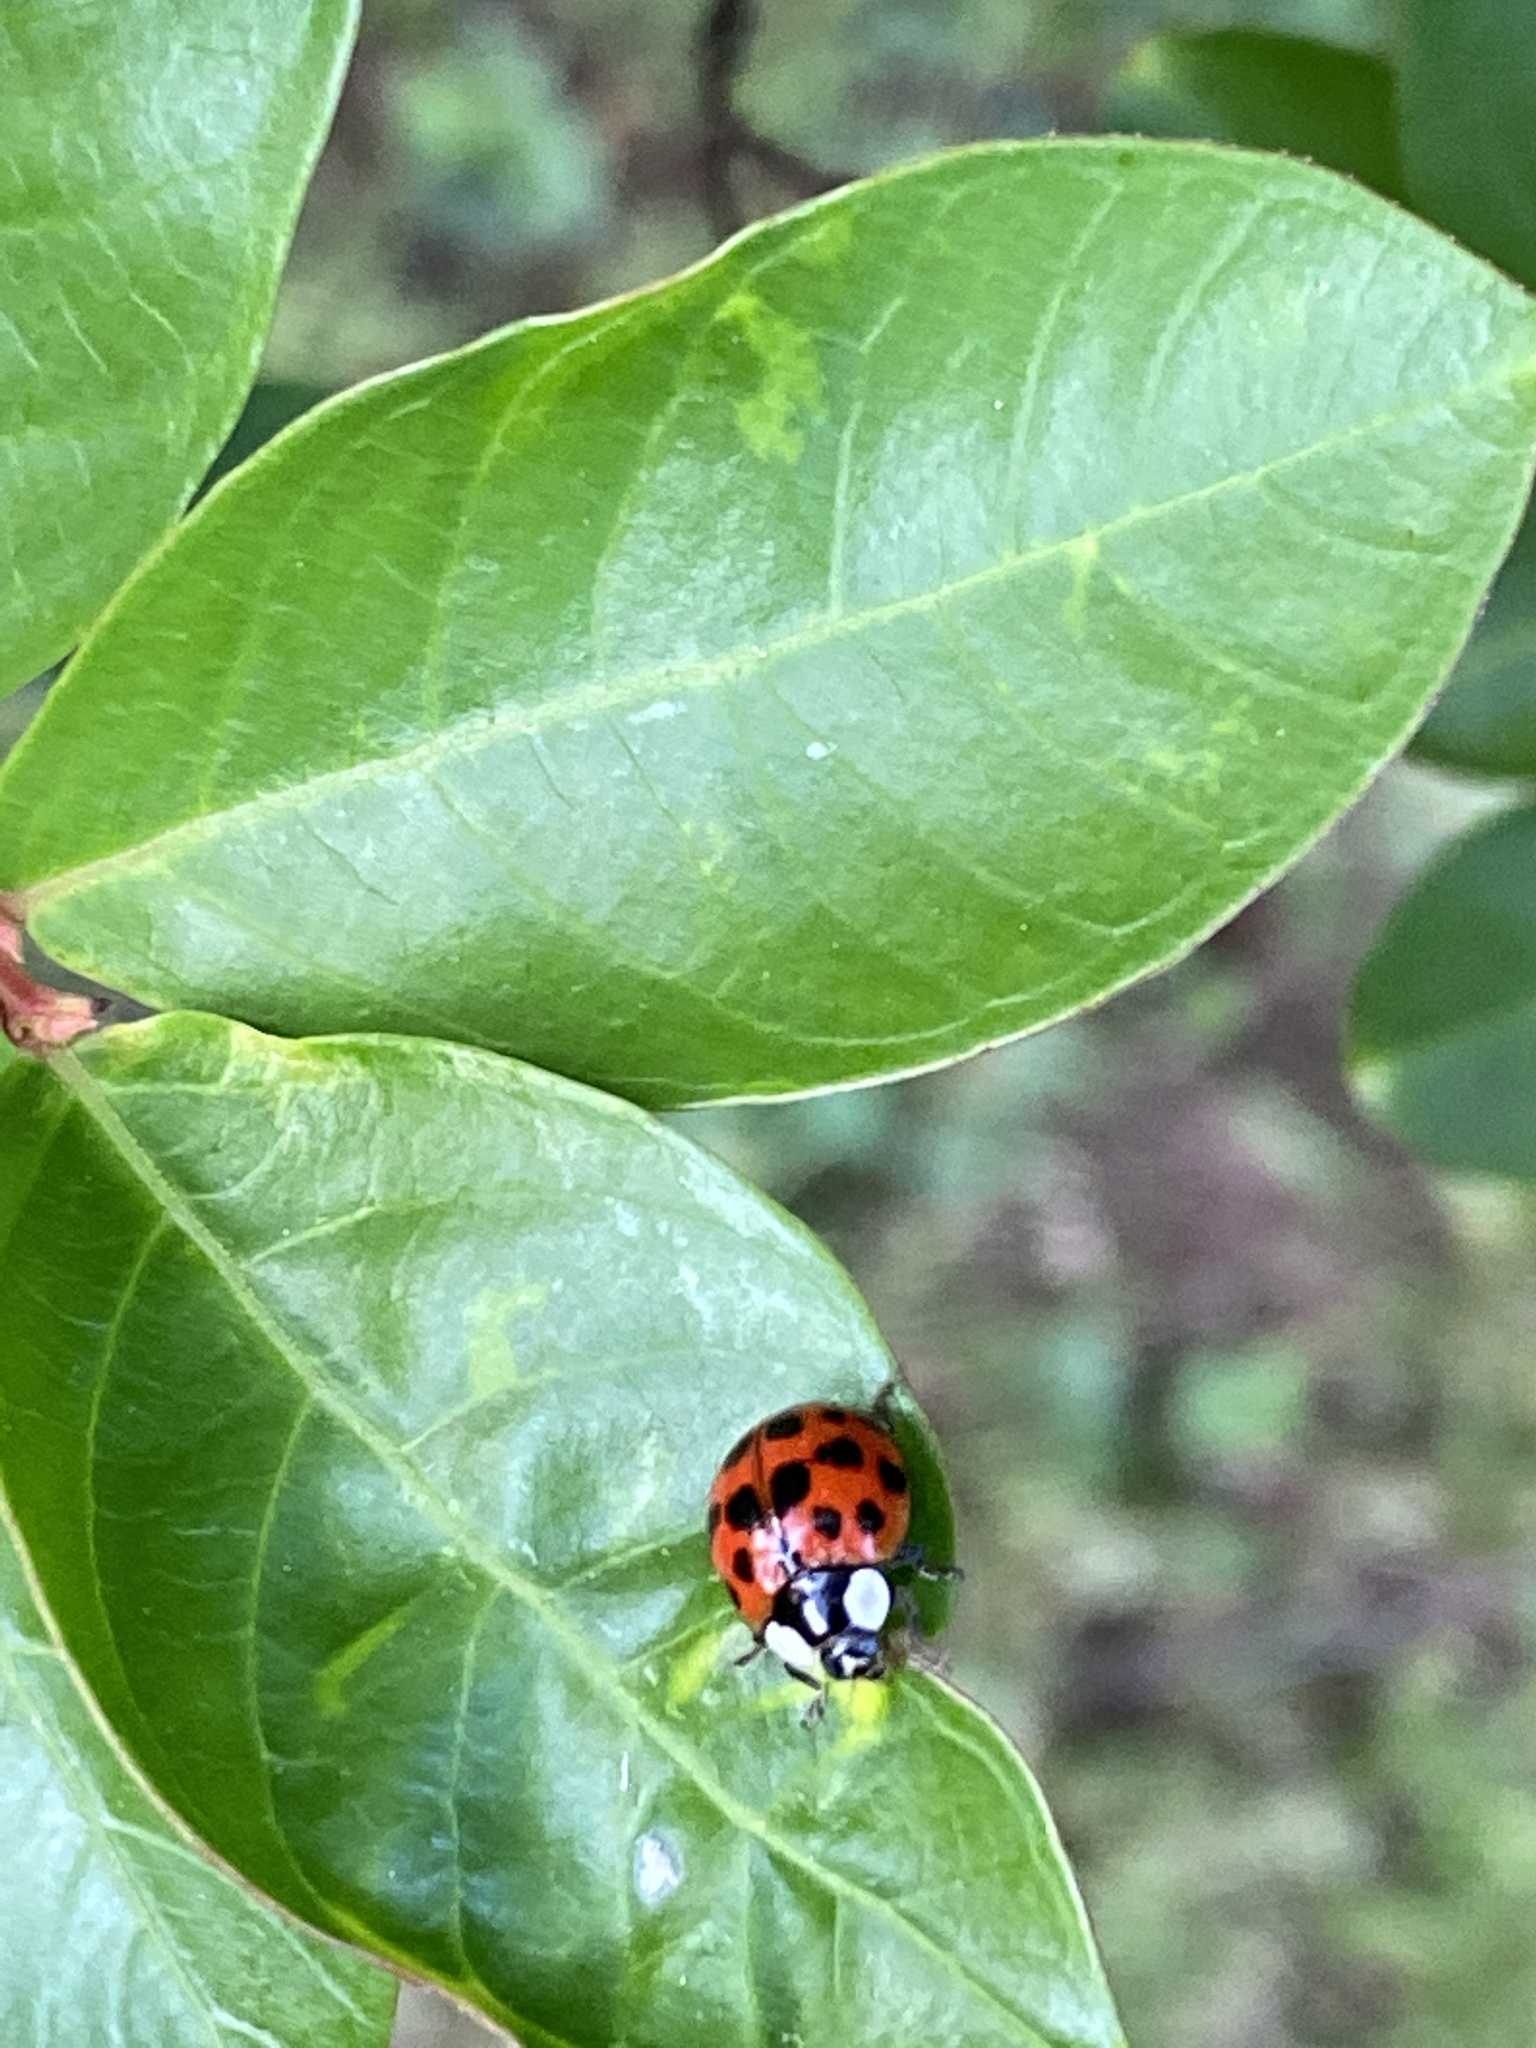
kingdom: Animalia
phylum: Arthropoda
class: Insecta
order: Coleoptera
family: Coccinellidae
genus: Harmonia
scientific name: Harmonia axyridis
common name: Harlequin ladybird
